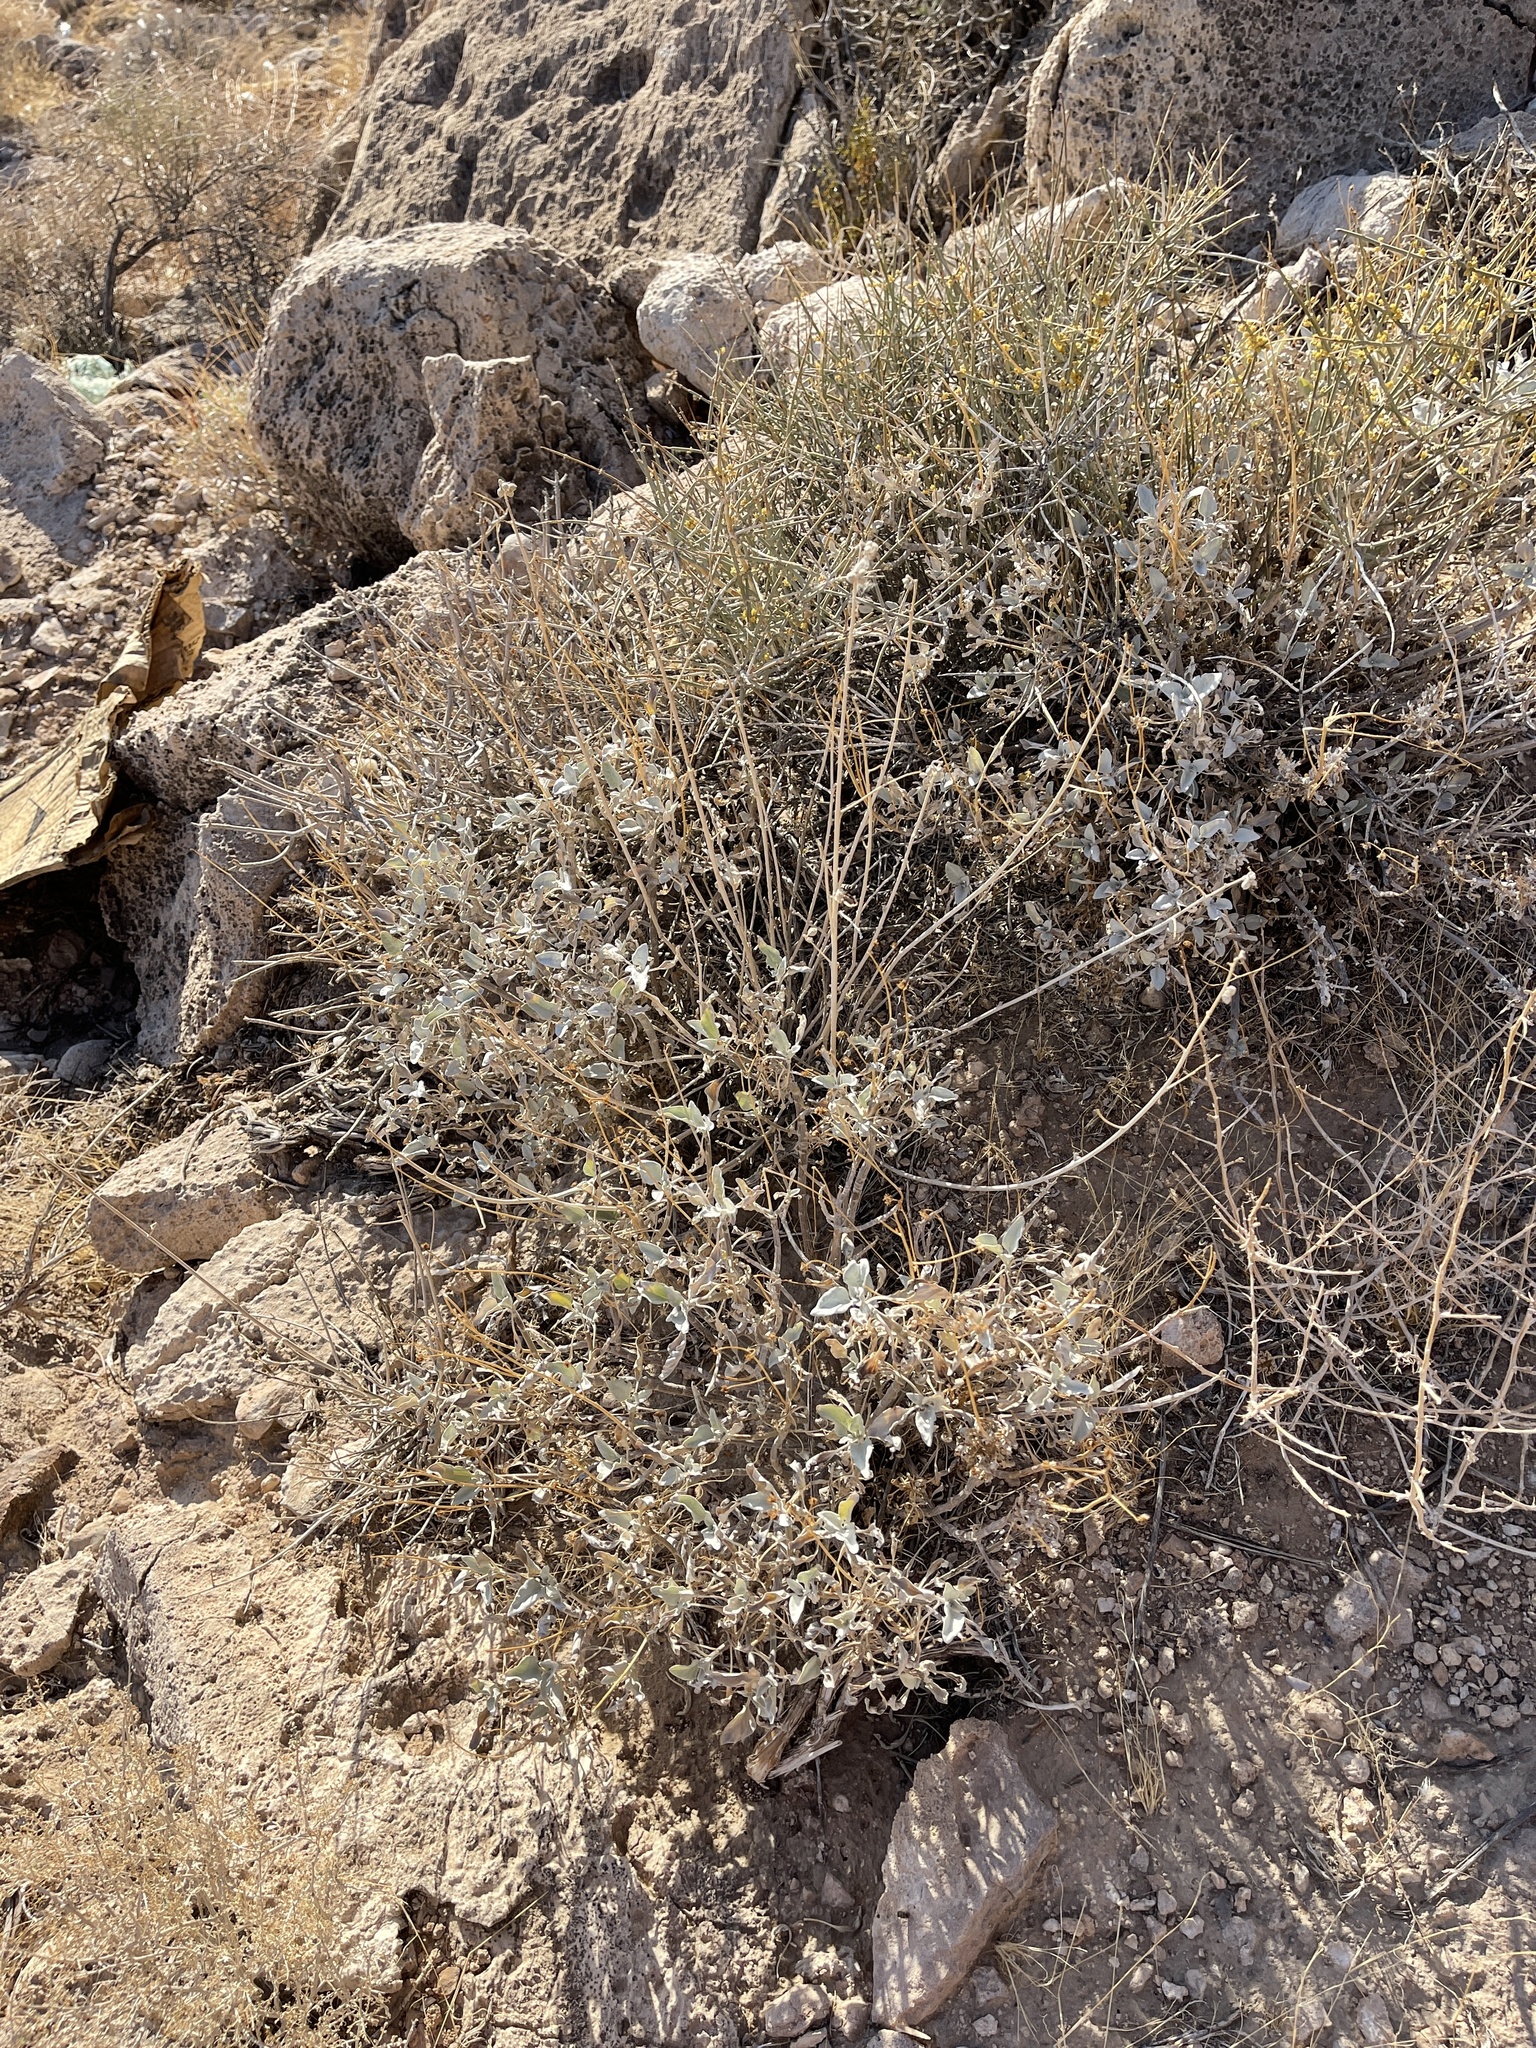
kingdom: Plantae
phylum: Tracheophyta
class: Magnoliopsida
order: Asterales
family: Asteraceae
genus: Encelia
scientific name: Encelia farinosa
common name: Brittlebush
